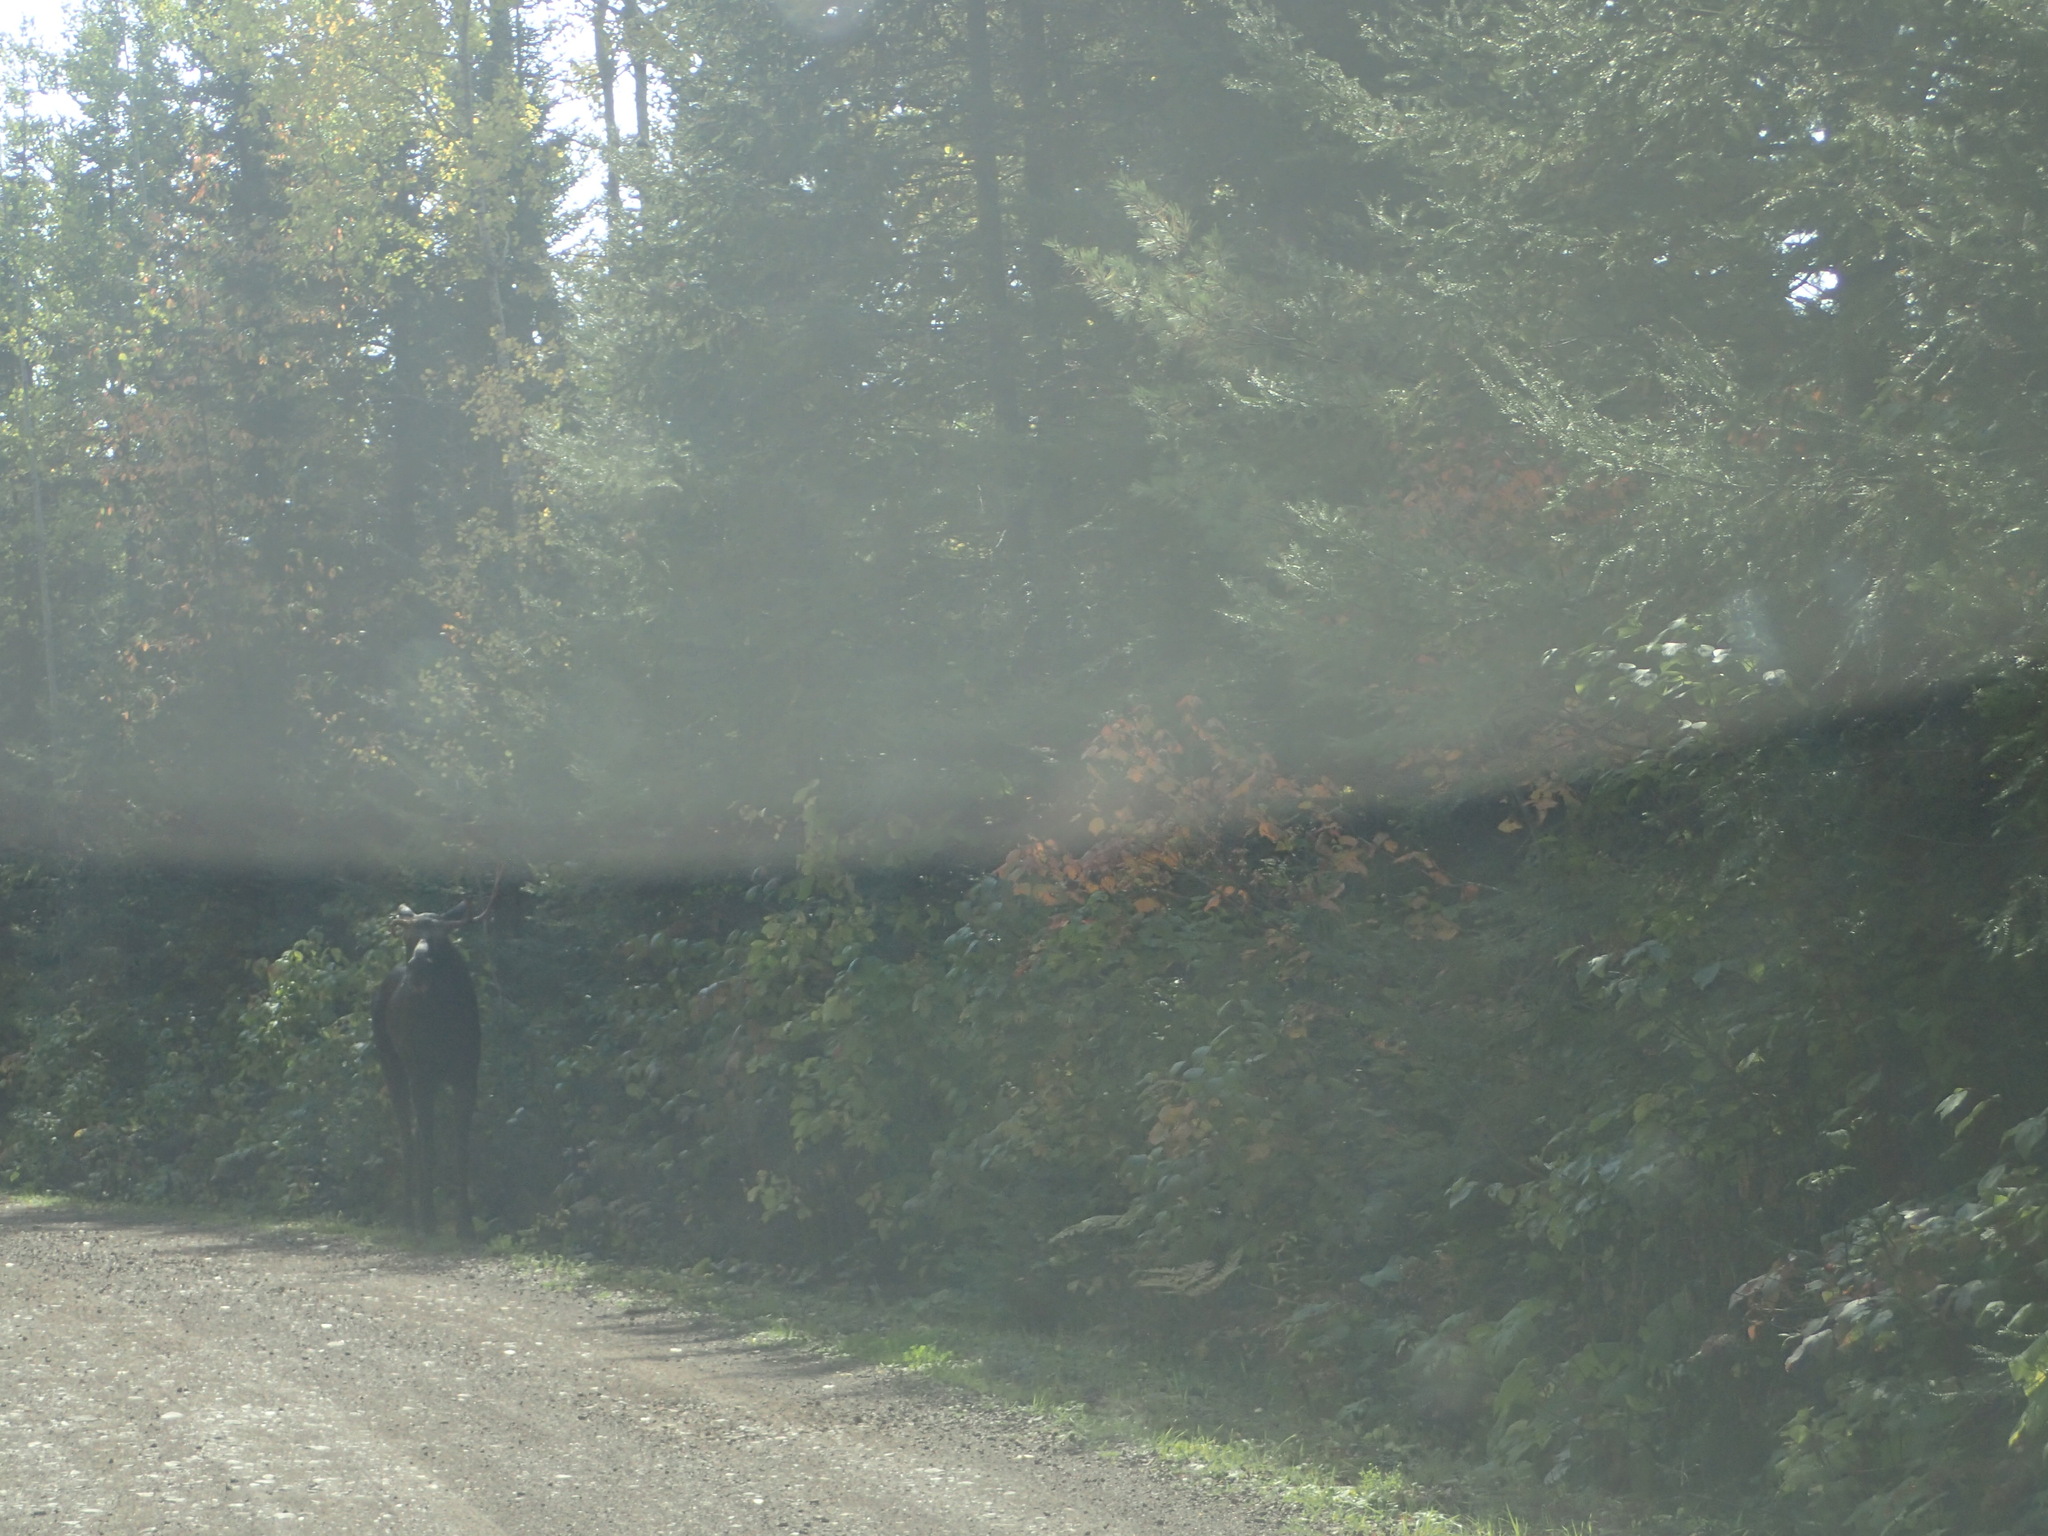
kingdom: Animalia
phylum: Chordata
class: Mammalia
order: Artiodactyla
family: Cervidae
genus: Alces
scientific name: Alces alces
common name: Moose
